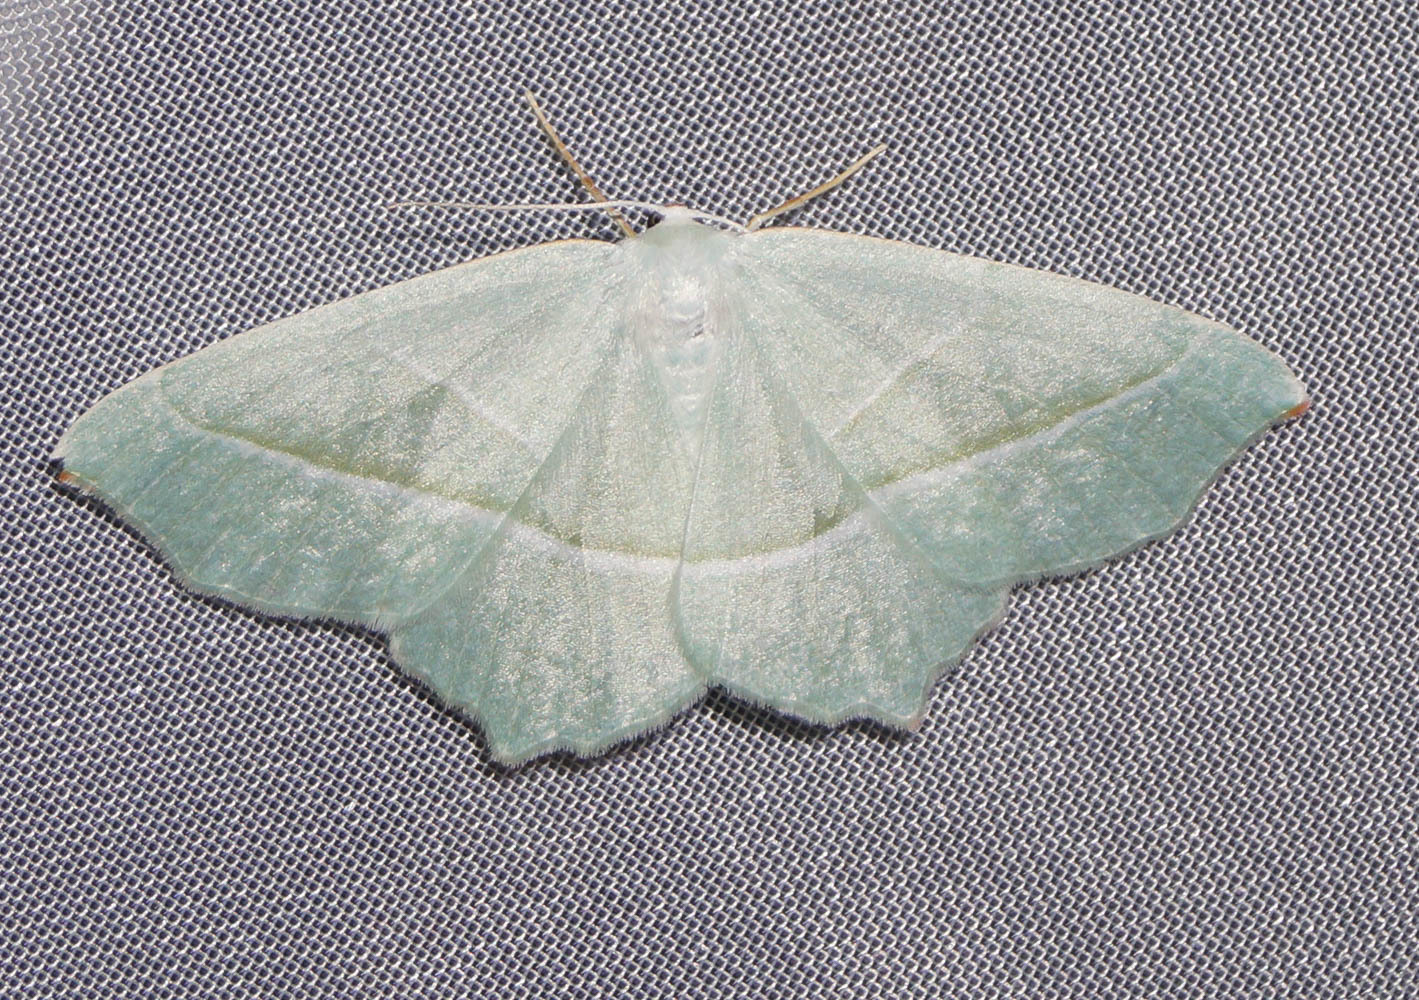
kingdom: Animalia
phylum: Arthropoda
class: Insecta
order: Lepidoptera
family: Geometridae
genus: Campaea
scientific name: Campaea margaritaria
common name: Light emerald
